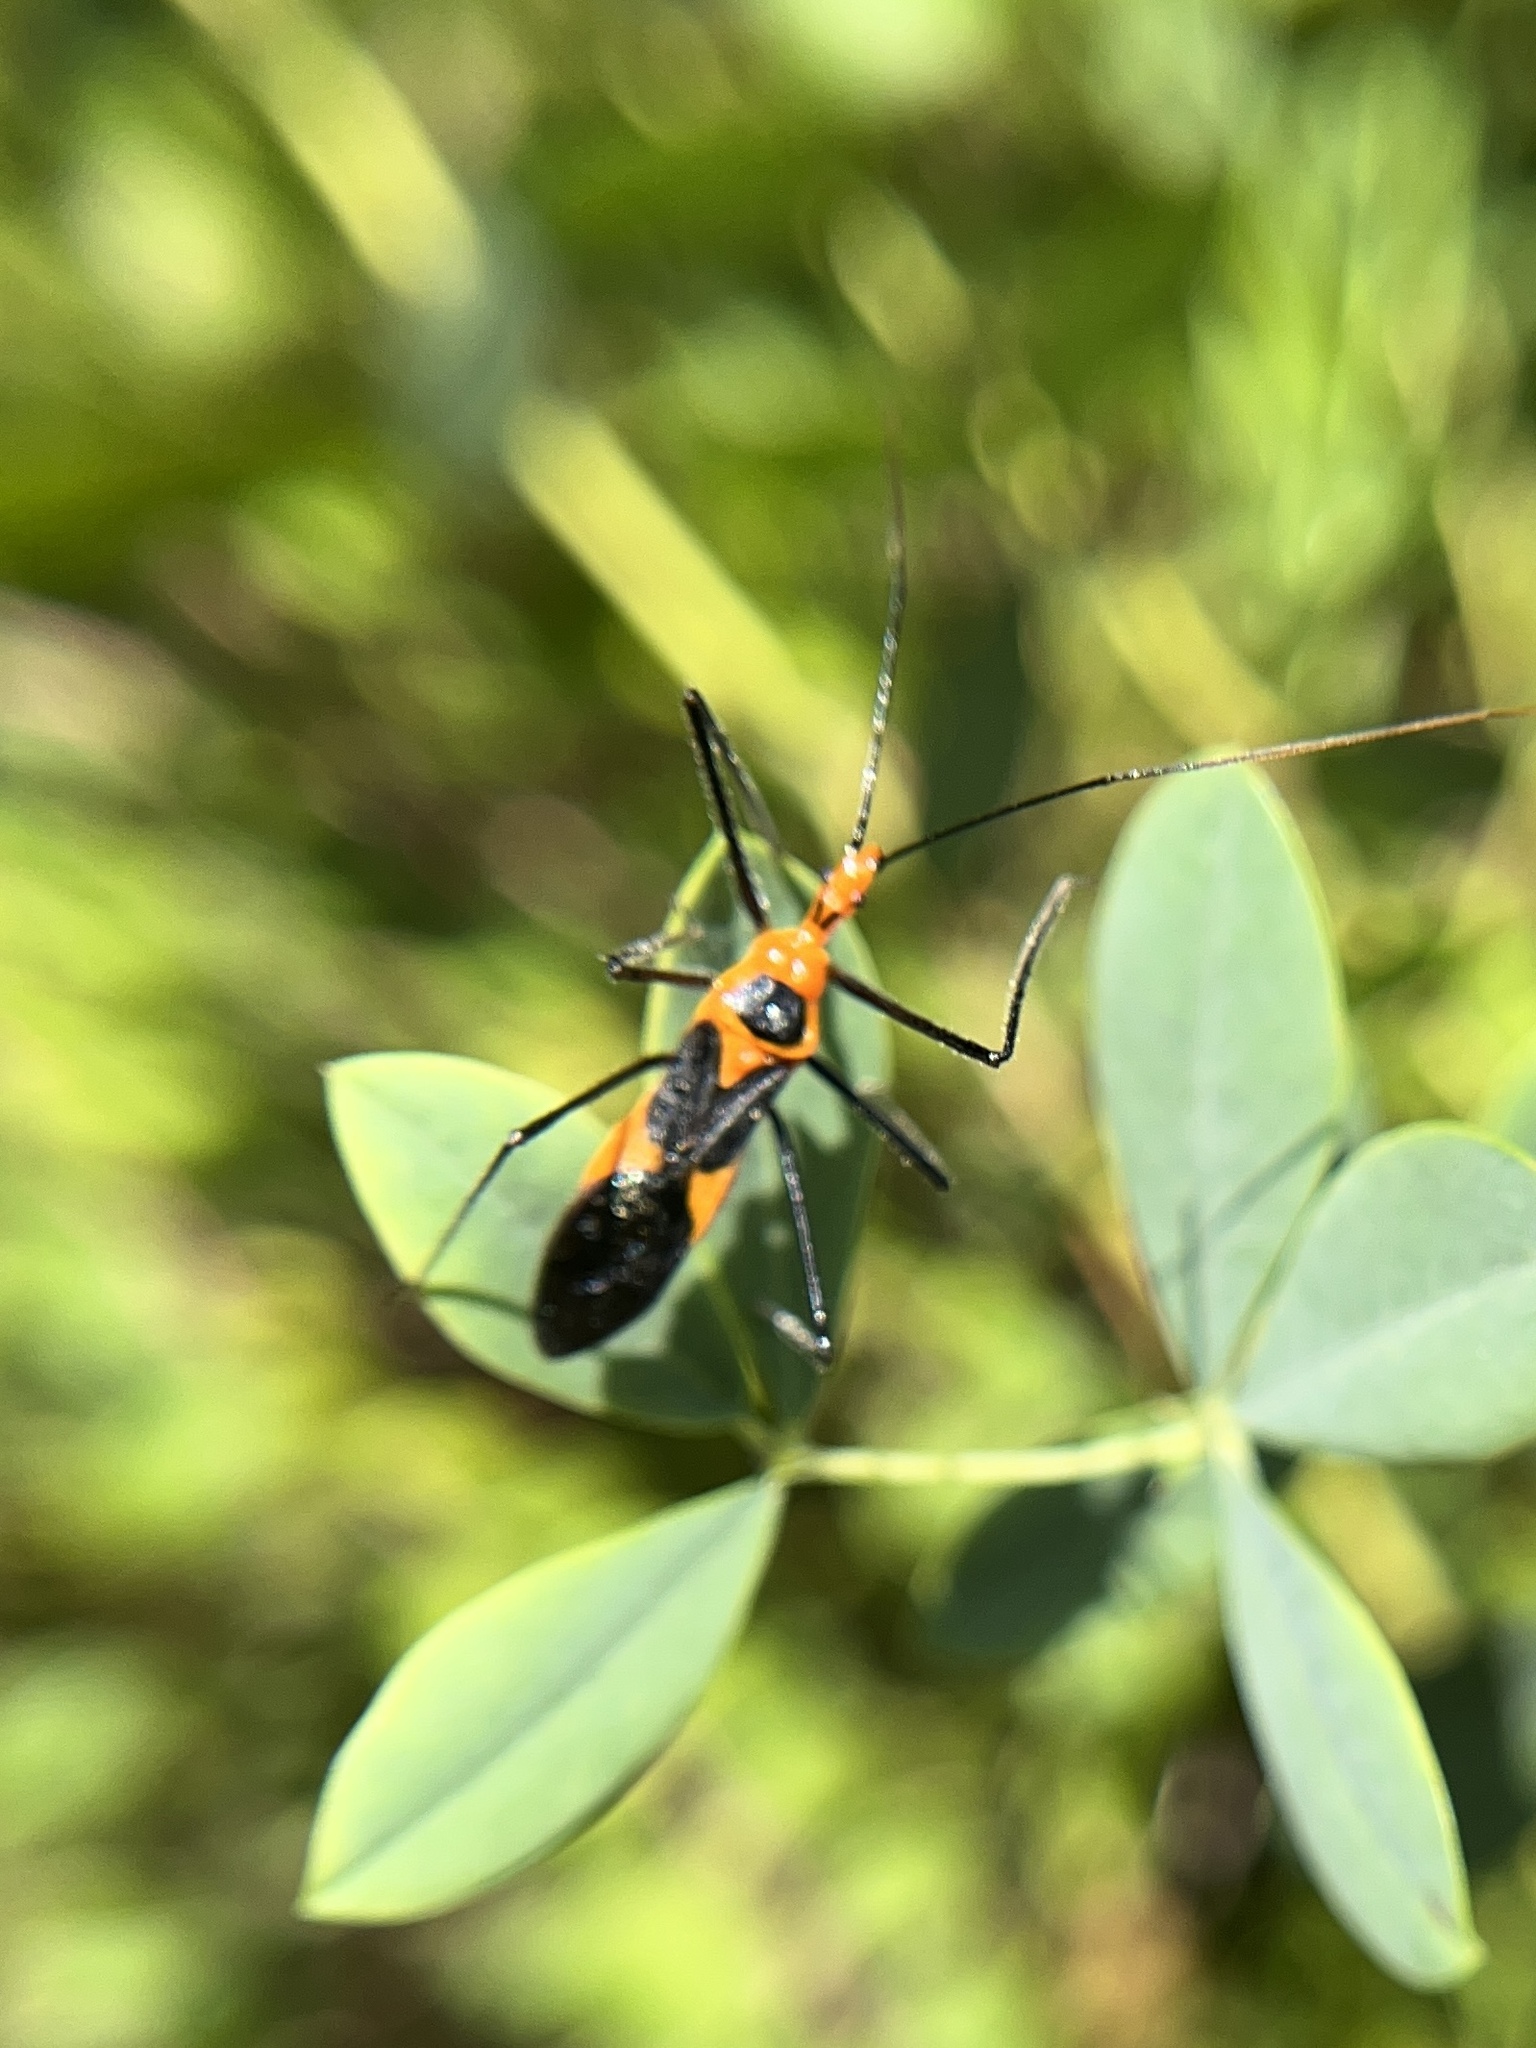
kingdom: Animalia
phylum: Arthropoda
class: Insecta
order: Hemiptera
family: Reduviidae
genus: Zelus
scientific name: Zelus longipes
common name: Milkweed assassin bug
